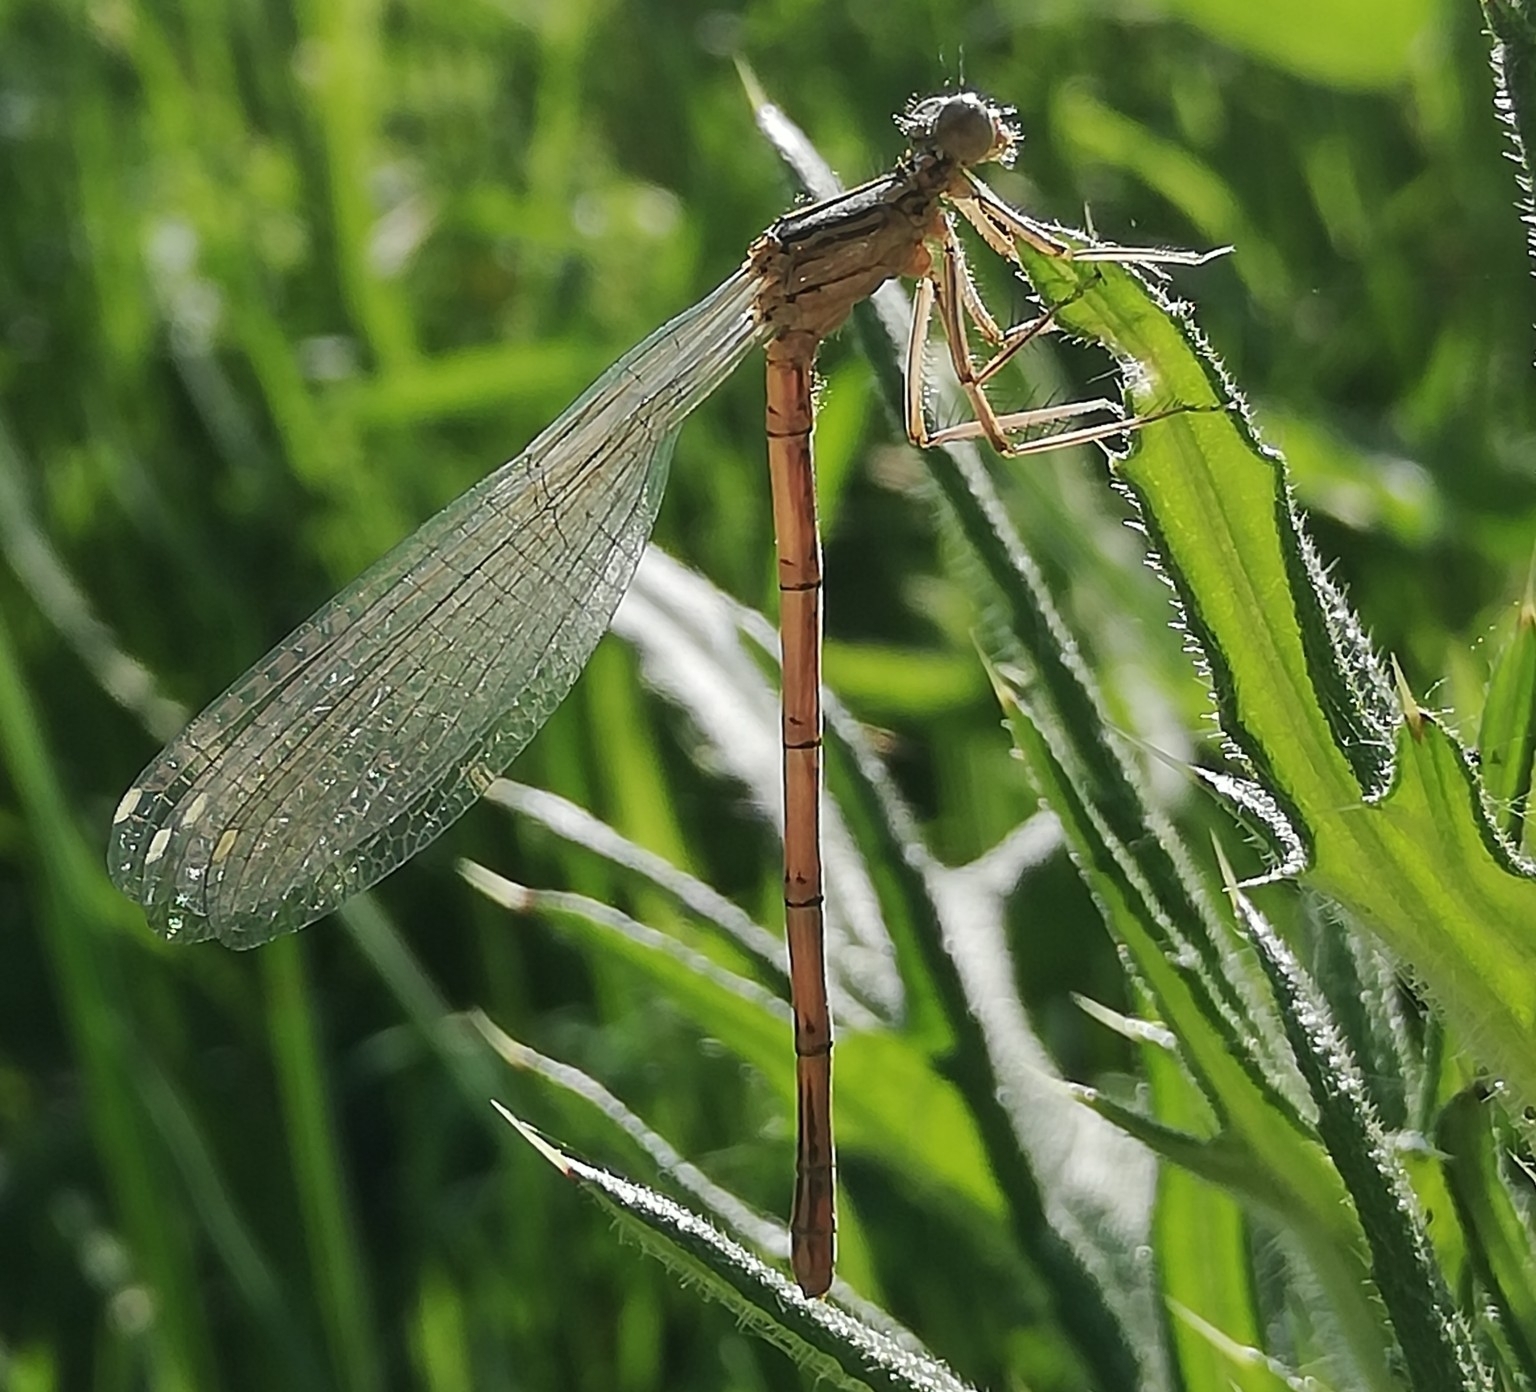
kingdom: Animalia
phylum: Arthropoda
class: Insecta
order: Odonata
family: Platycnemididae
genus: Platycnemis
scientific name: Platycnemis pennipes
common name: White-legged damselfly
